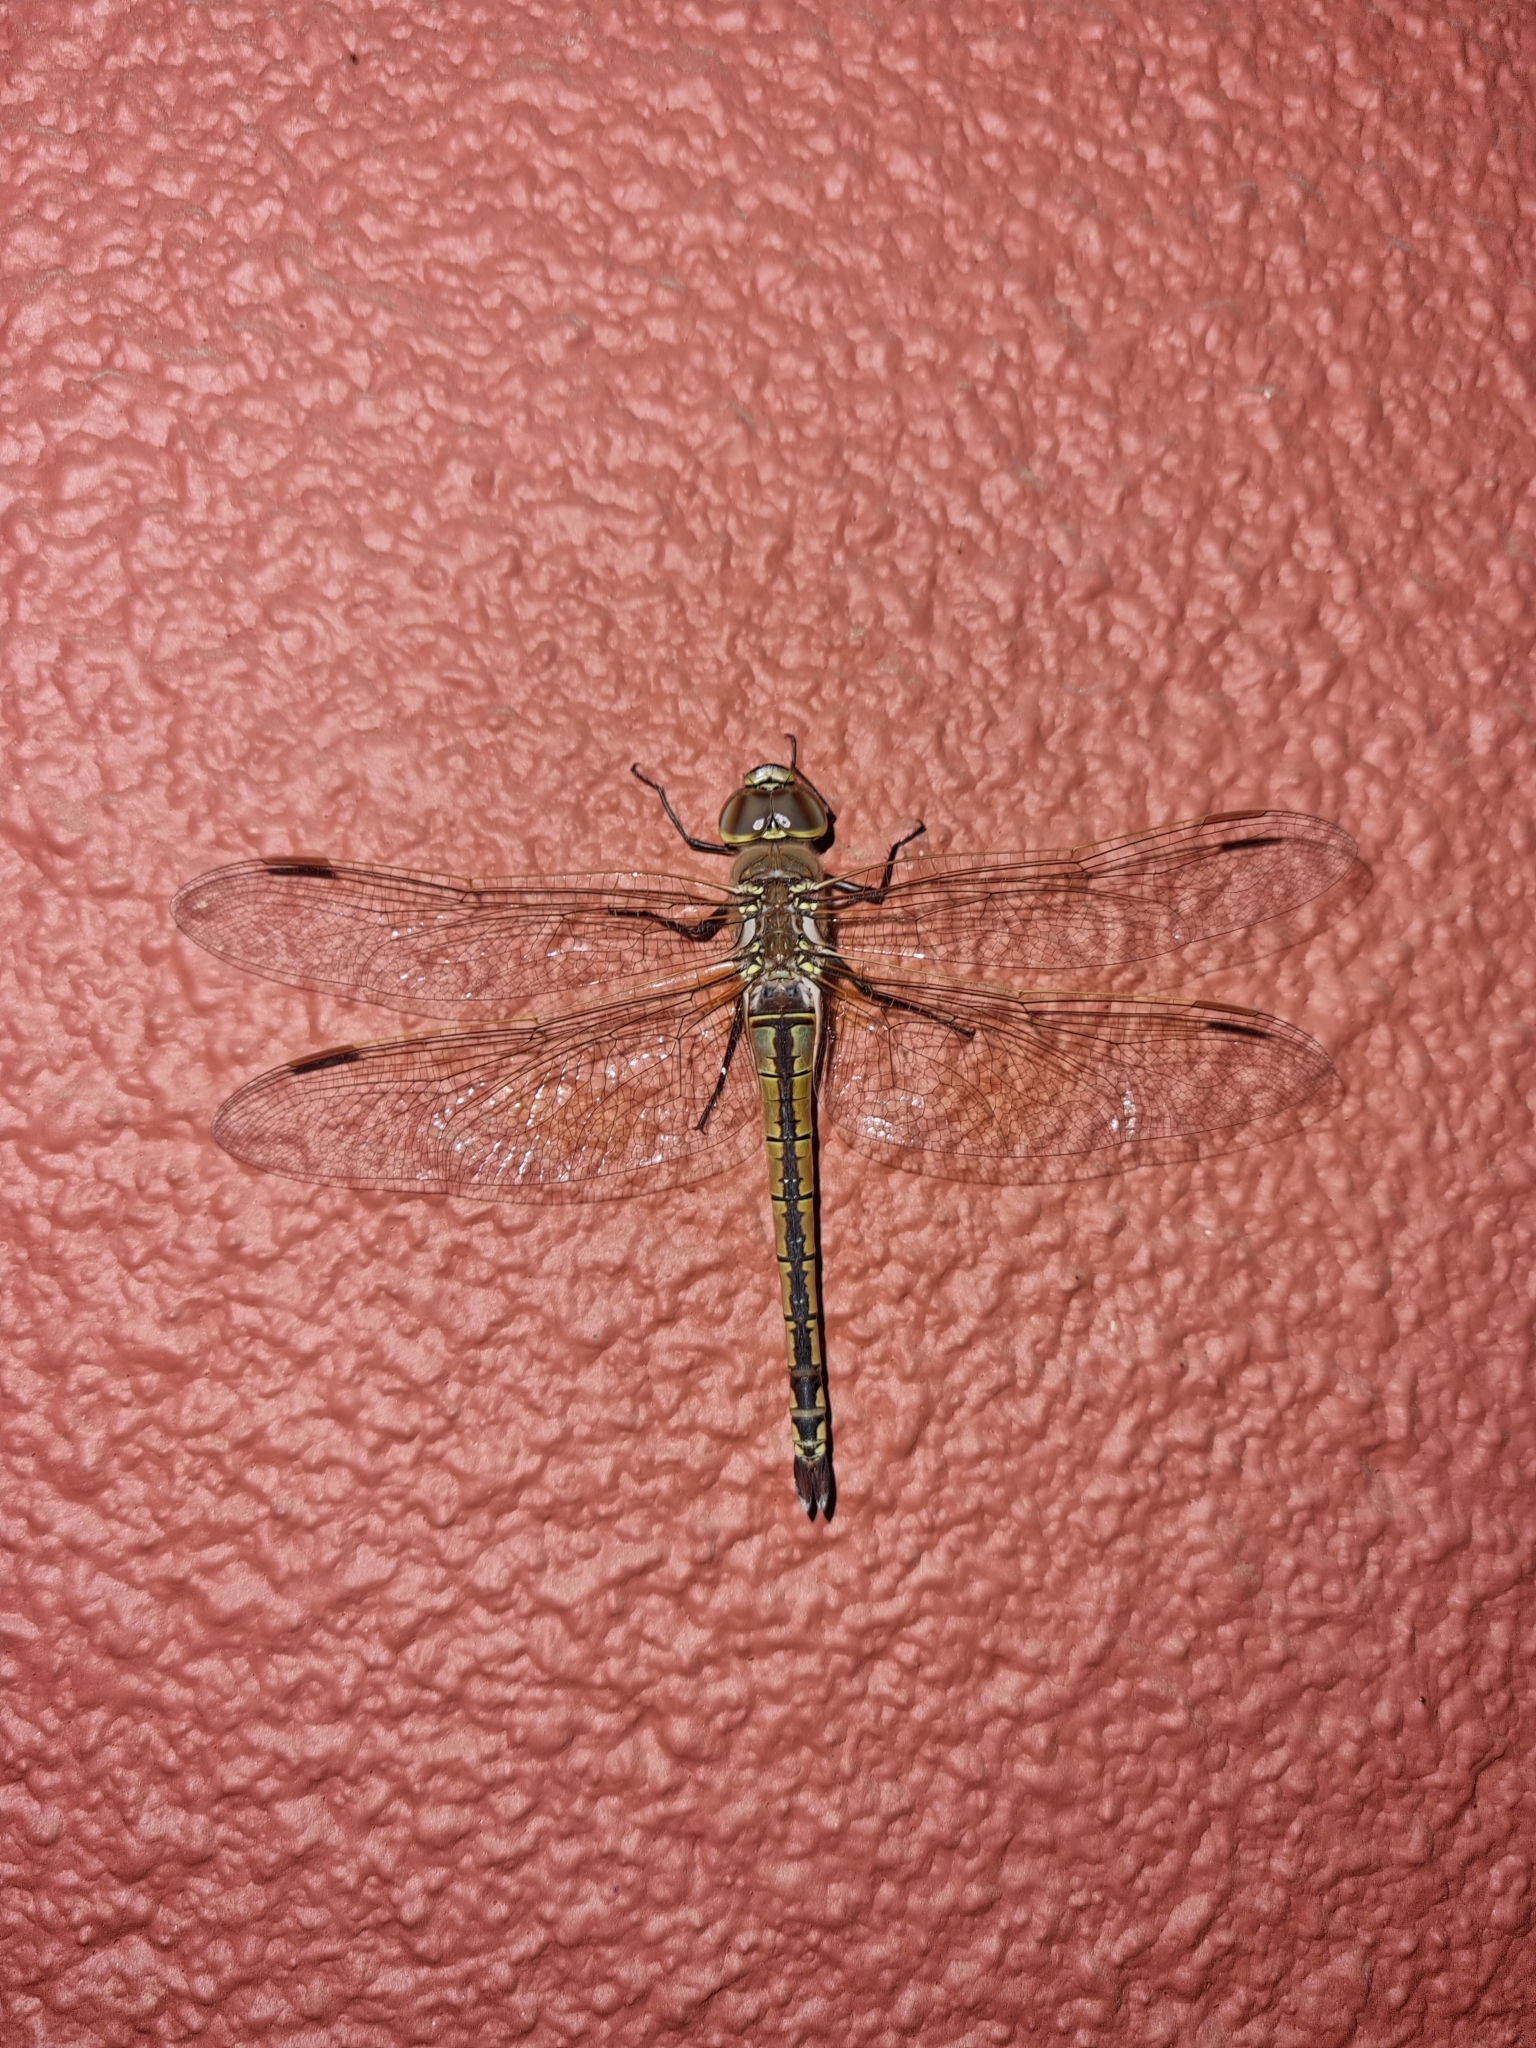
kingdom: Animalia
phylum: Arthropoda
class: Insecta
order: Odonata
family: Aeshnidae
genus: Anax
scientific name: Anax ephippiger
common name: Vagrant emperor
